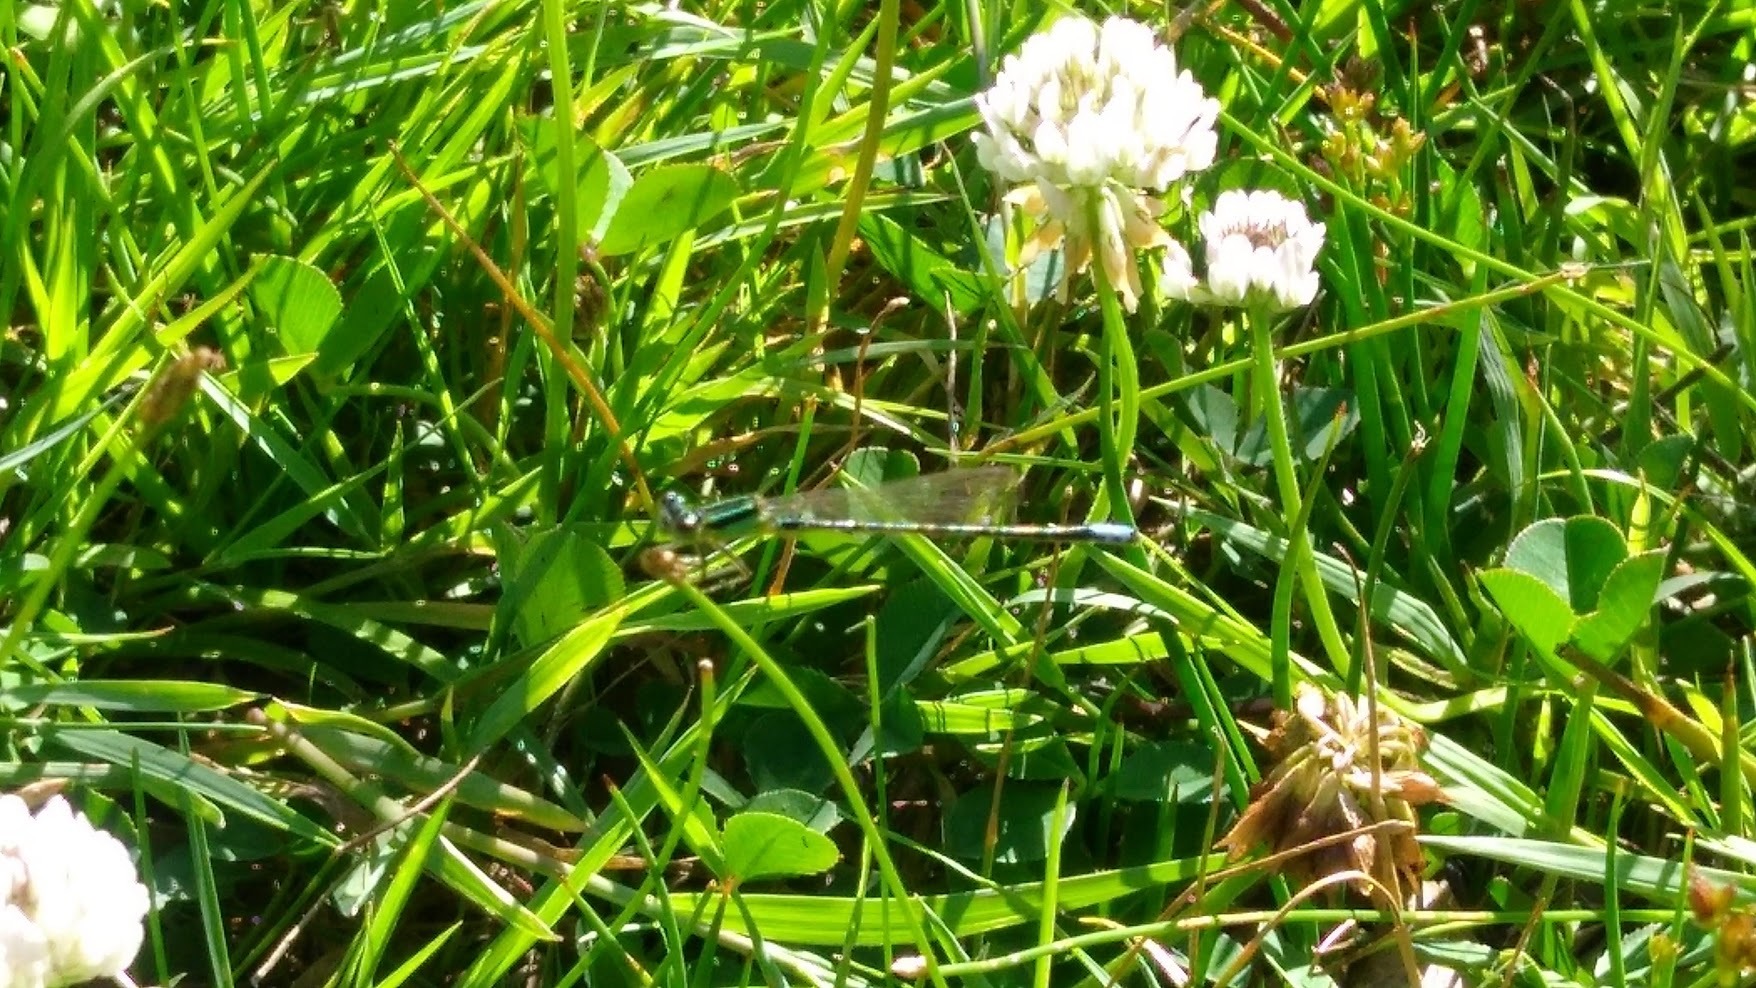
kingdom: Animalia
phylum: Arthropoda
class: Insecta
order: Odonata
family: Coenagrionidae
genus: Ischnura
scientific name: Ischnura verticalis
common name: Eastern forktail
